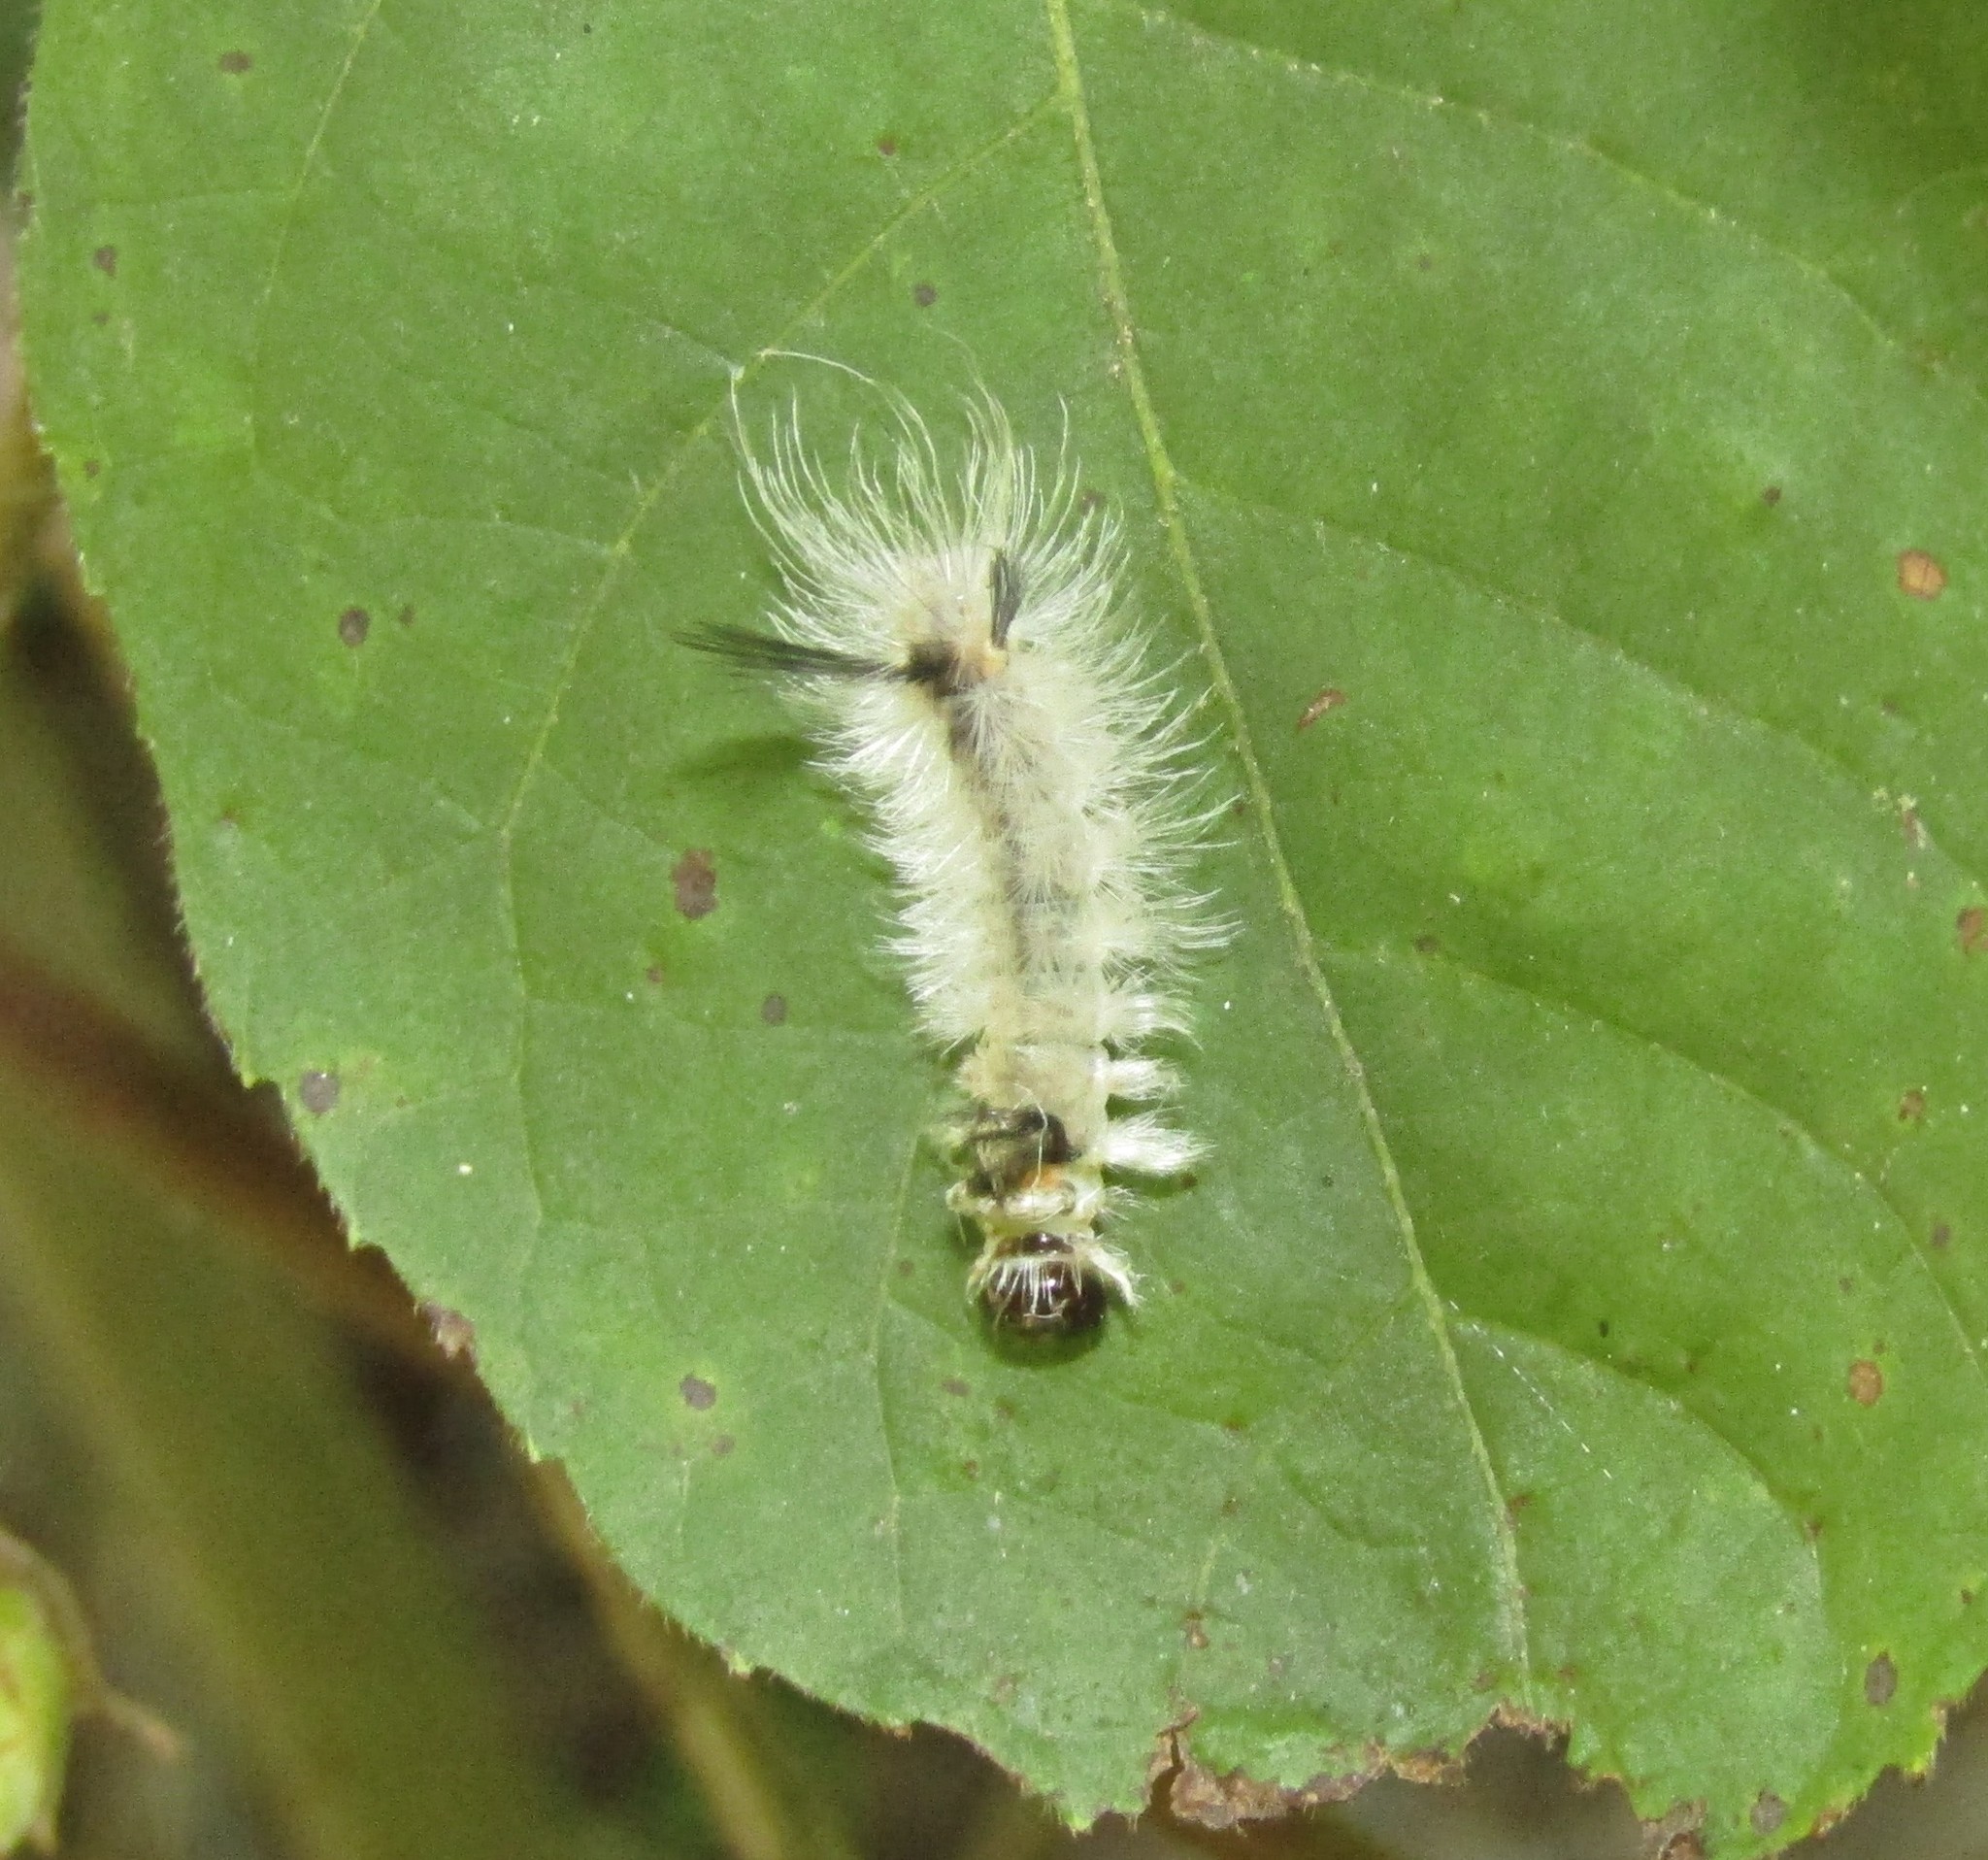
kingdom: Animalia
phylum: Arthropoda
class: Insecta
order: Lepidoptera
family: Erebidae
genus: Halysidota
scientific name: Halysidota tessellaris
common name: Banded tussock moth
